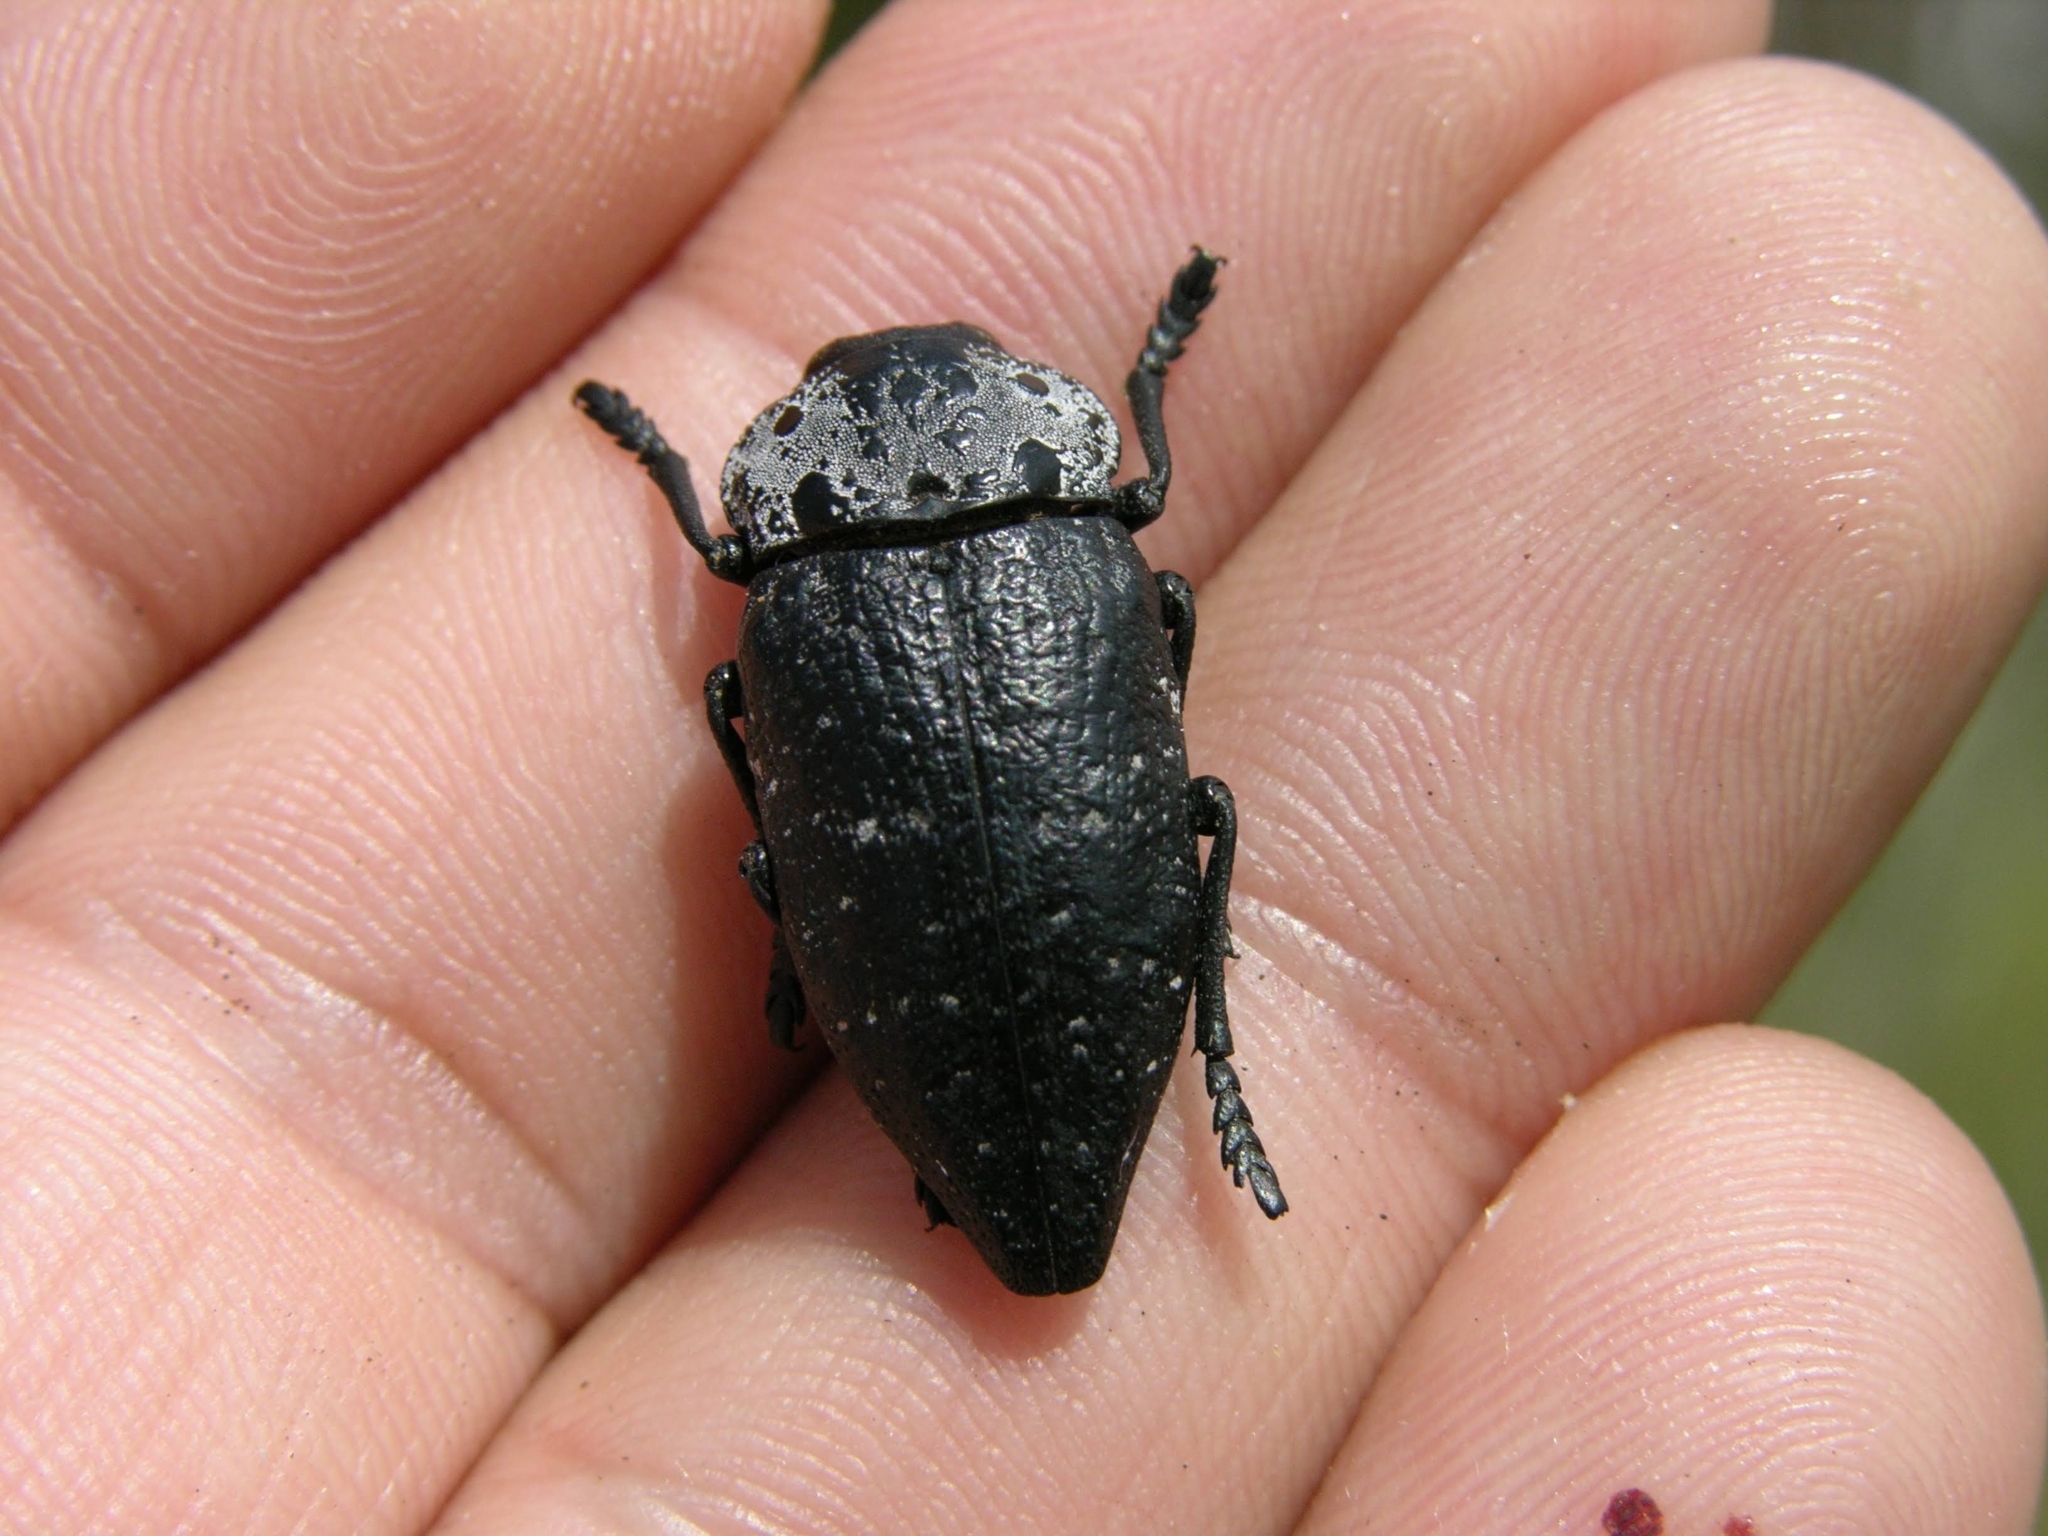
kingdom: Animalia
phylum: Arthropoda
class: Insecta
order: Coleoptera
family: Buprestidae
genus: Capnodis
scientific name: Capnodis tenebrionis
